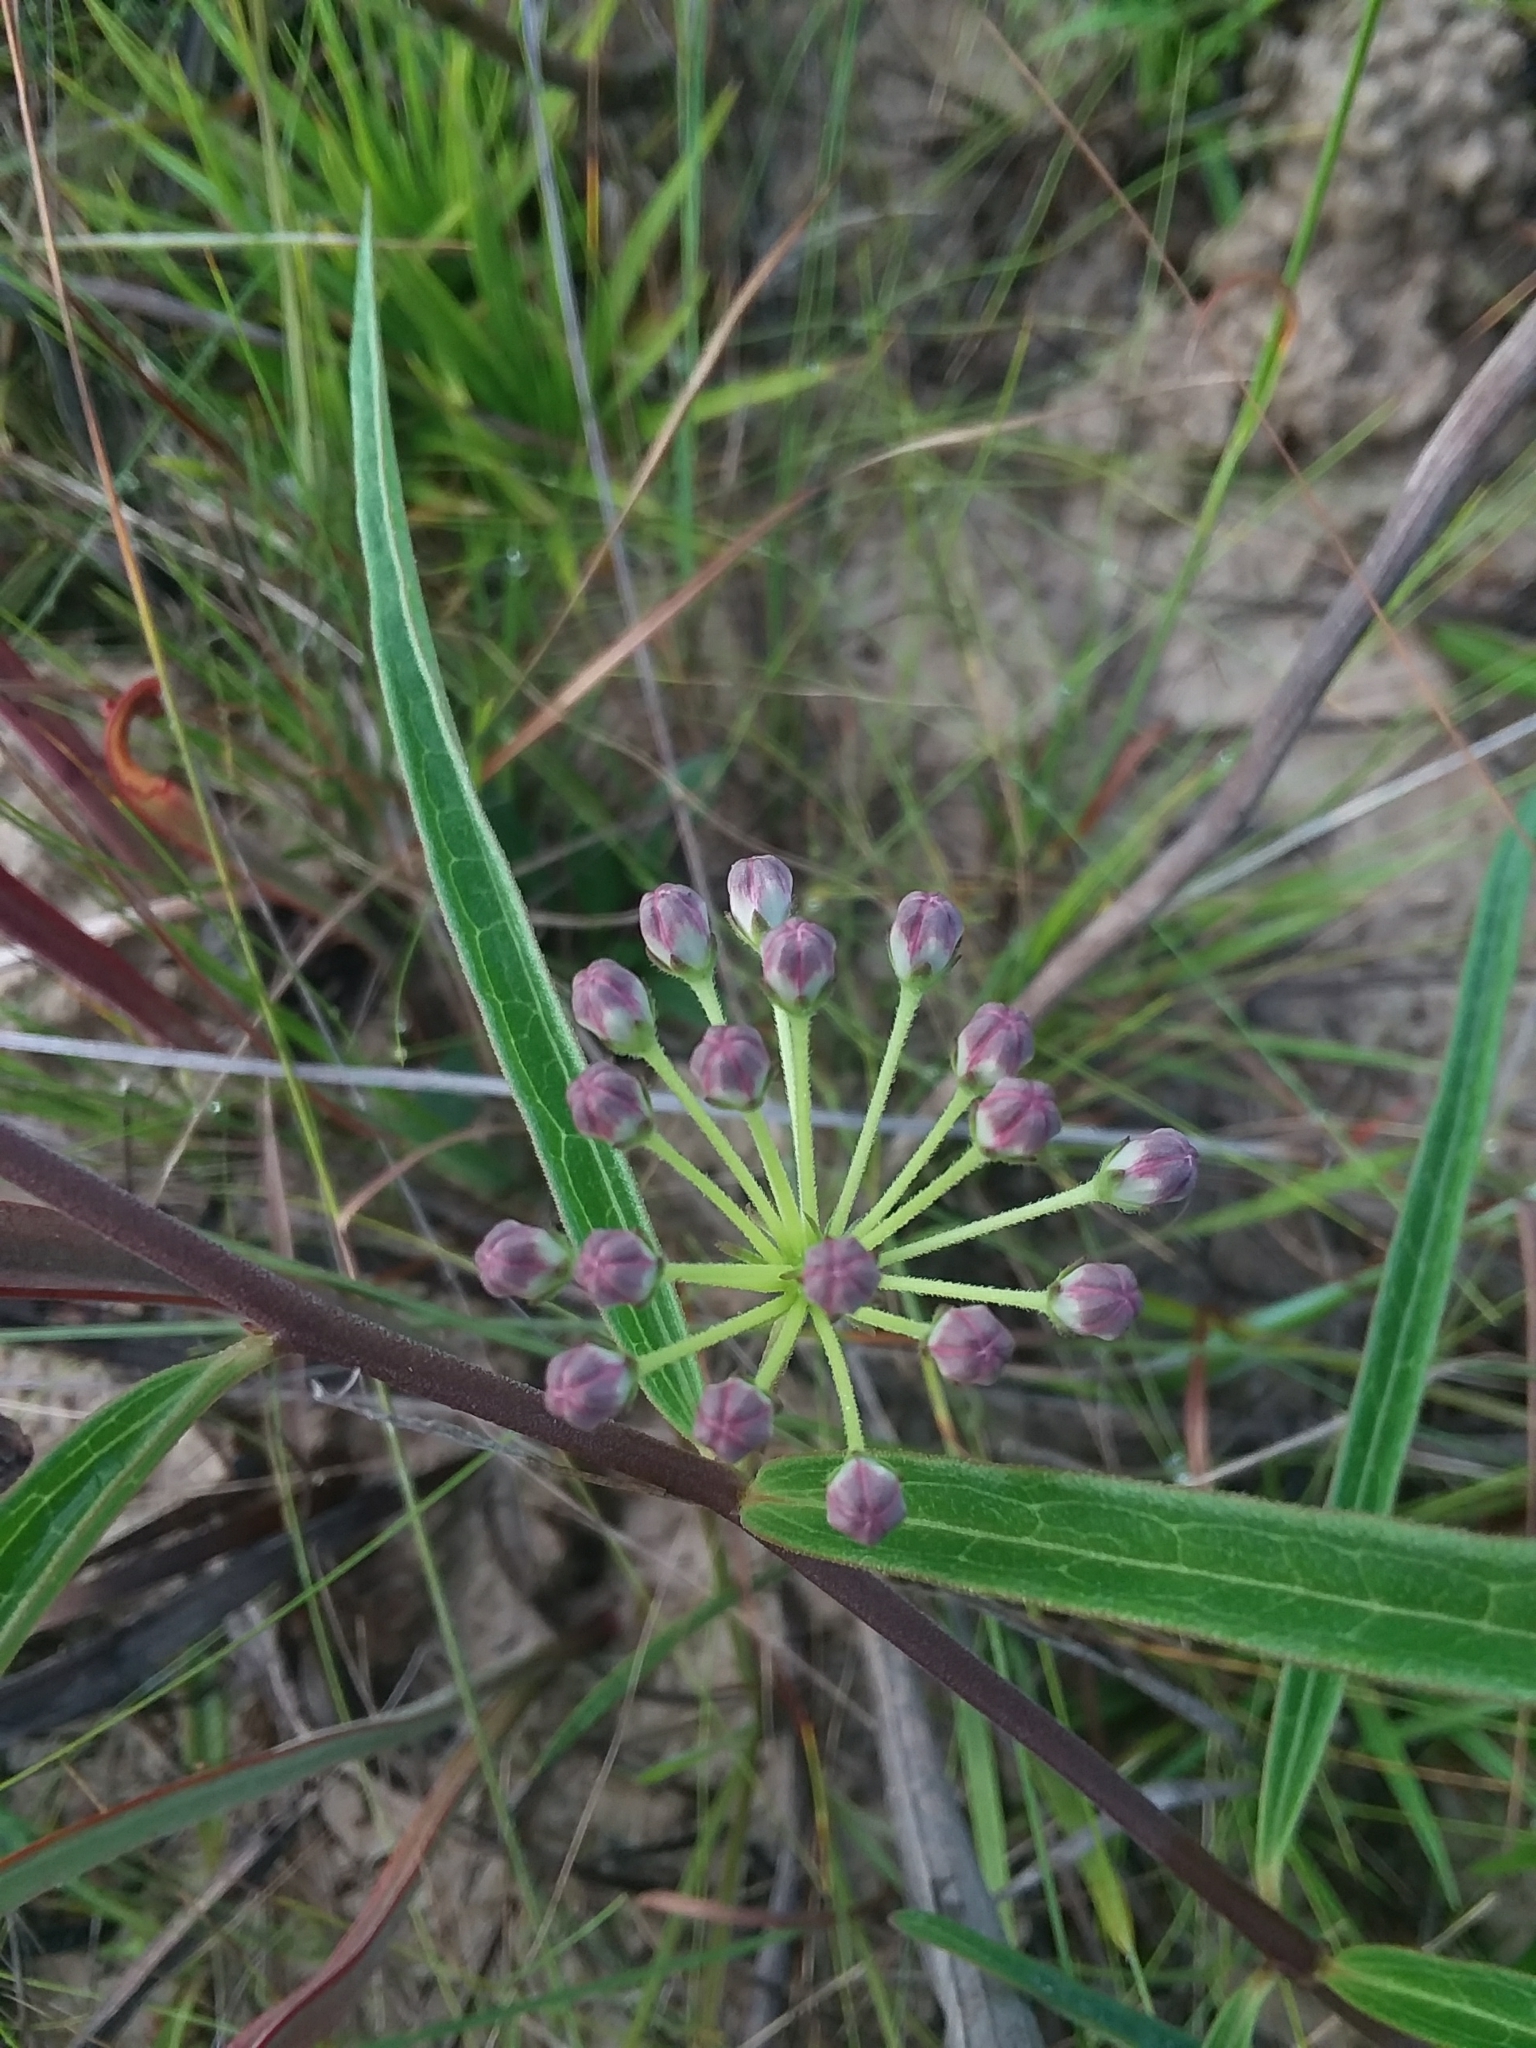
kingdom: Plantae
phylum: Tracheophyta
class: Magnoliopsida
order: Gentianales
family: Apocynaceae
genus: Asclepias
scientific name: Asclepias longifolia
